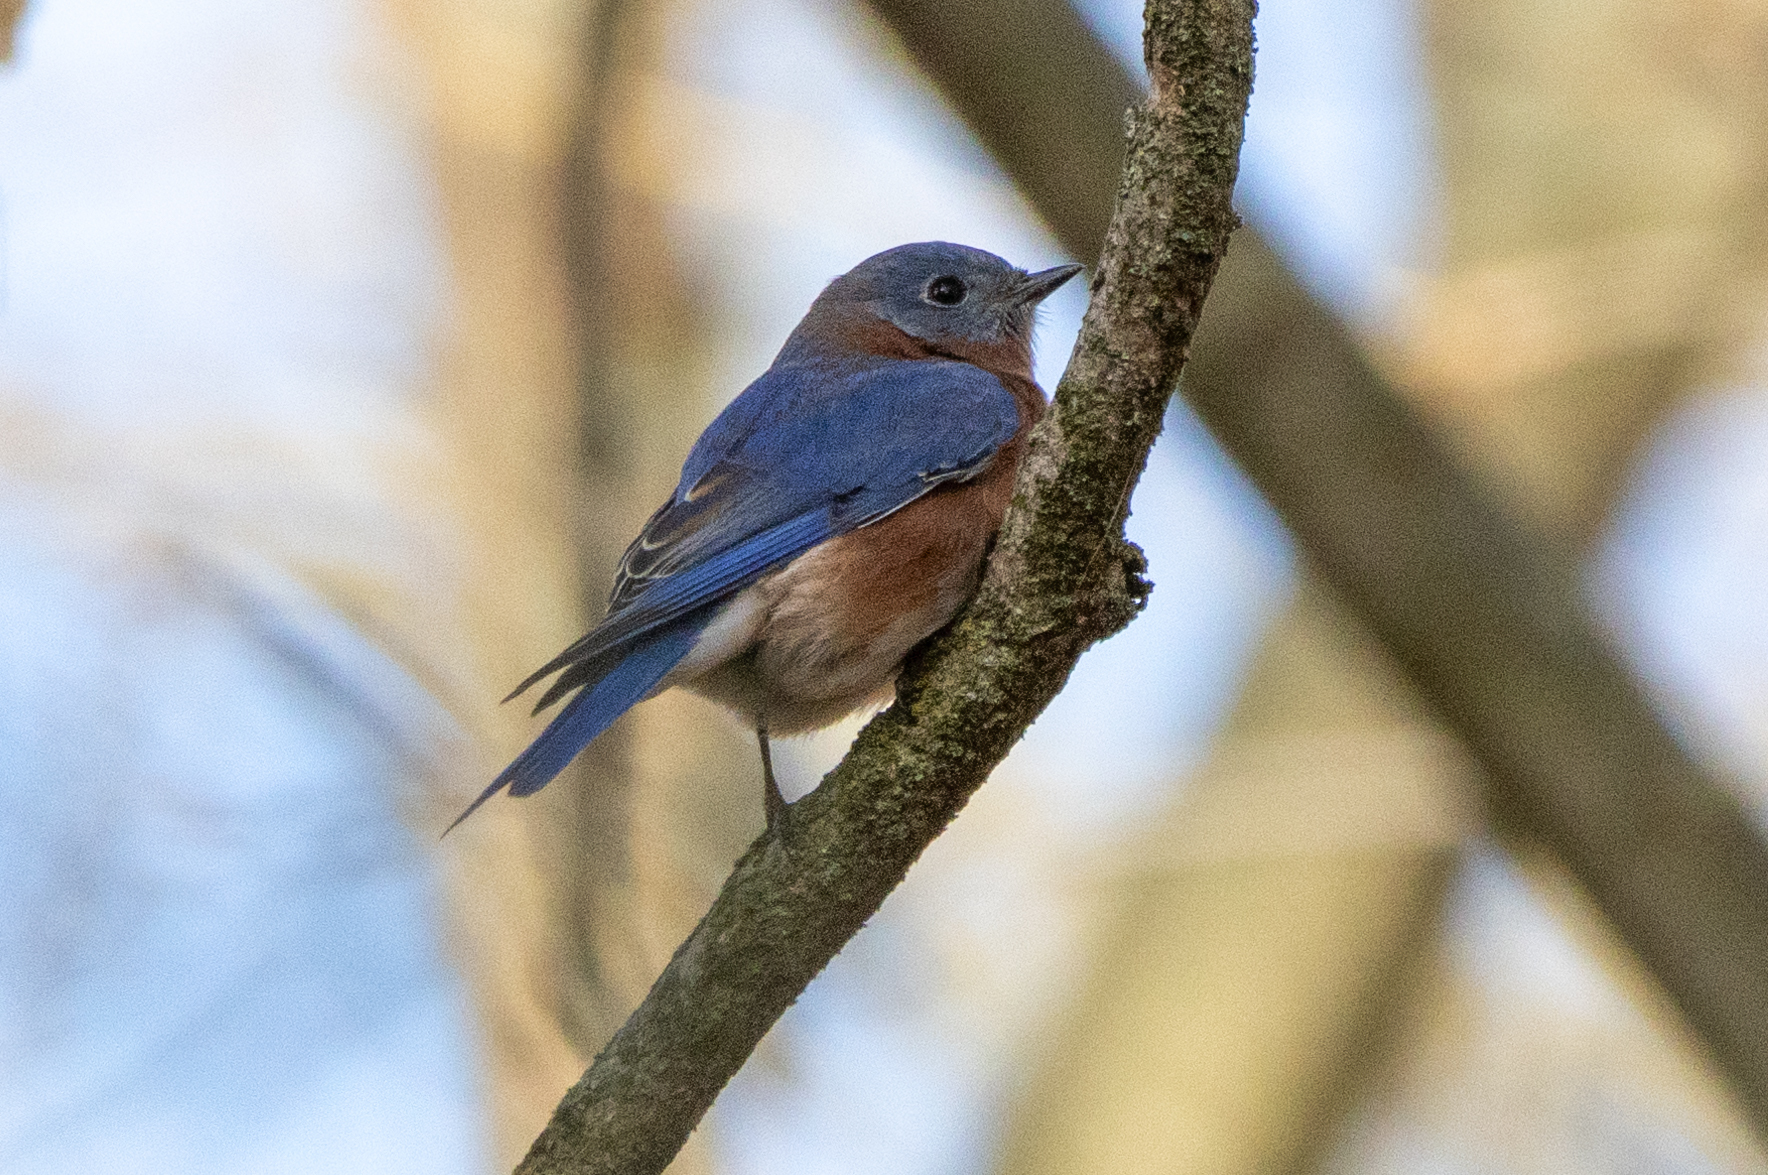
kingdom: Animalia
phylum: Chordata
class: Aves
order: Passeriformes
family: Turdidae
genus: Sialia
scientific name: Sialia sialis
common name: Eastern bluebird
